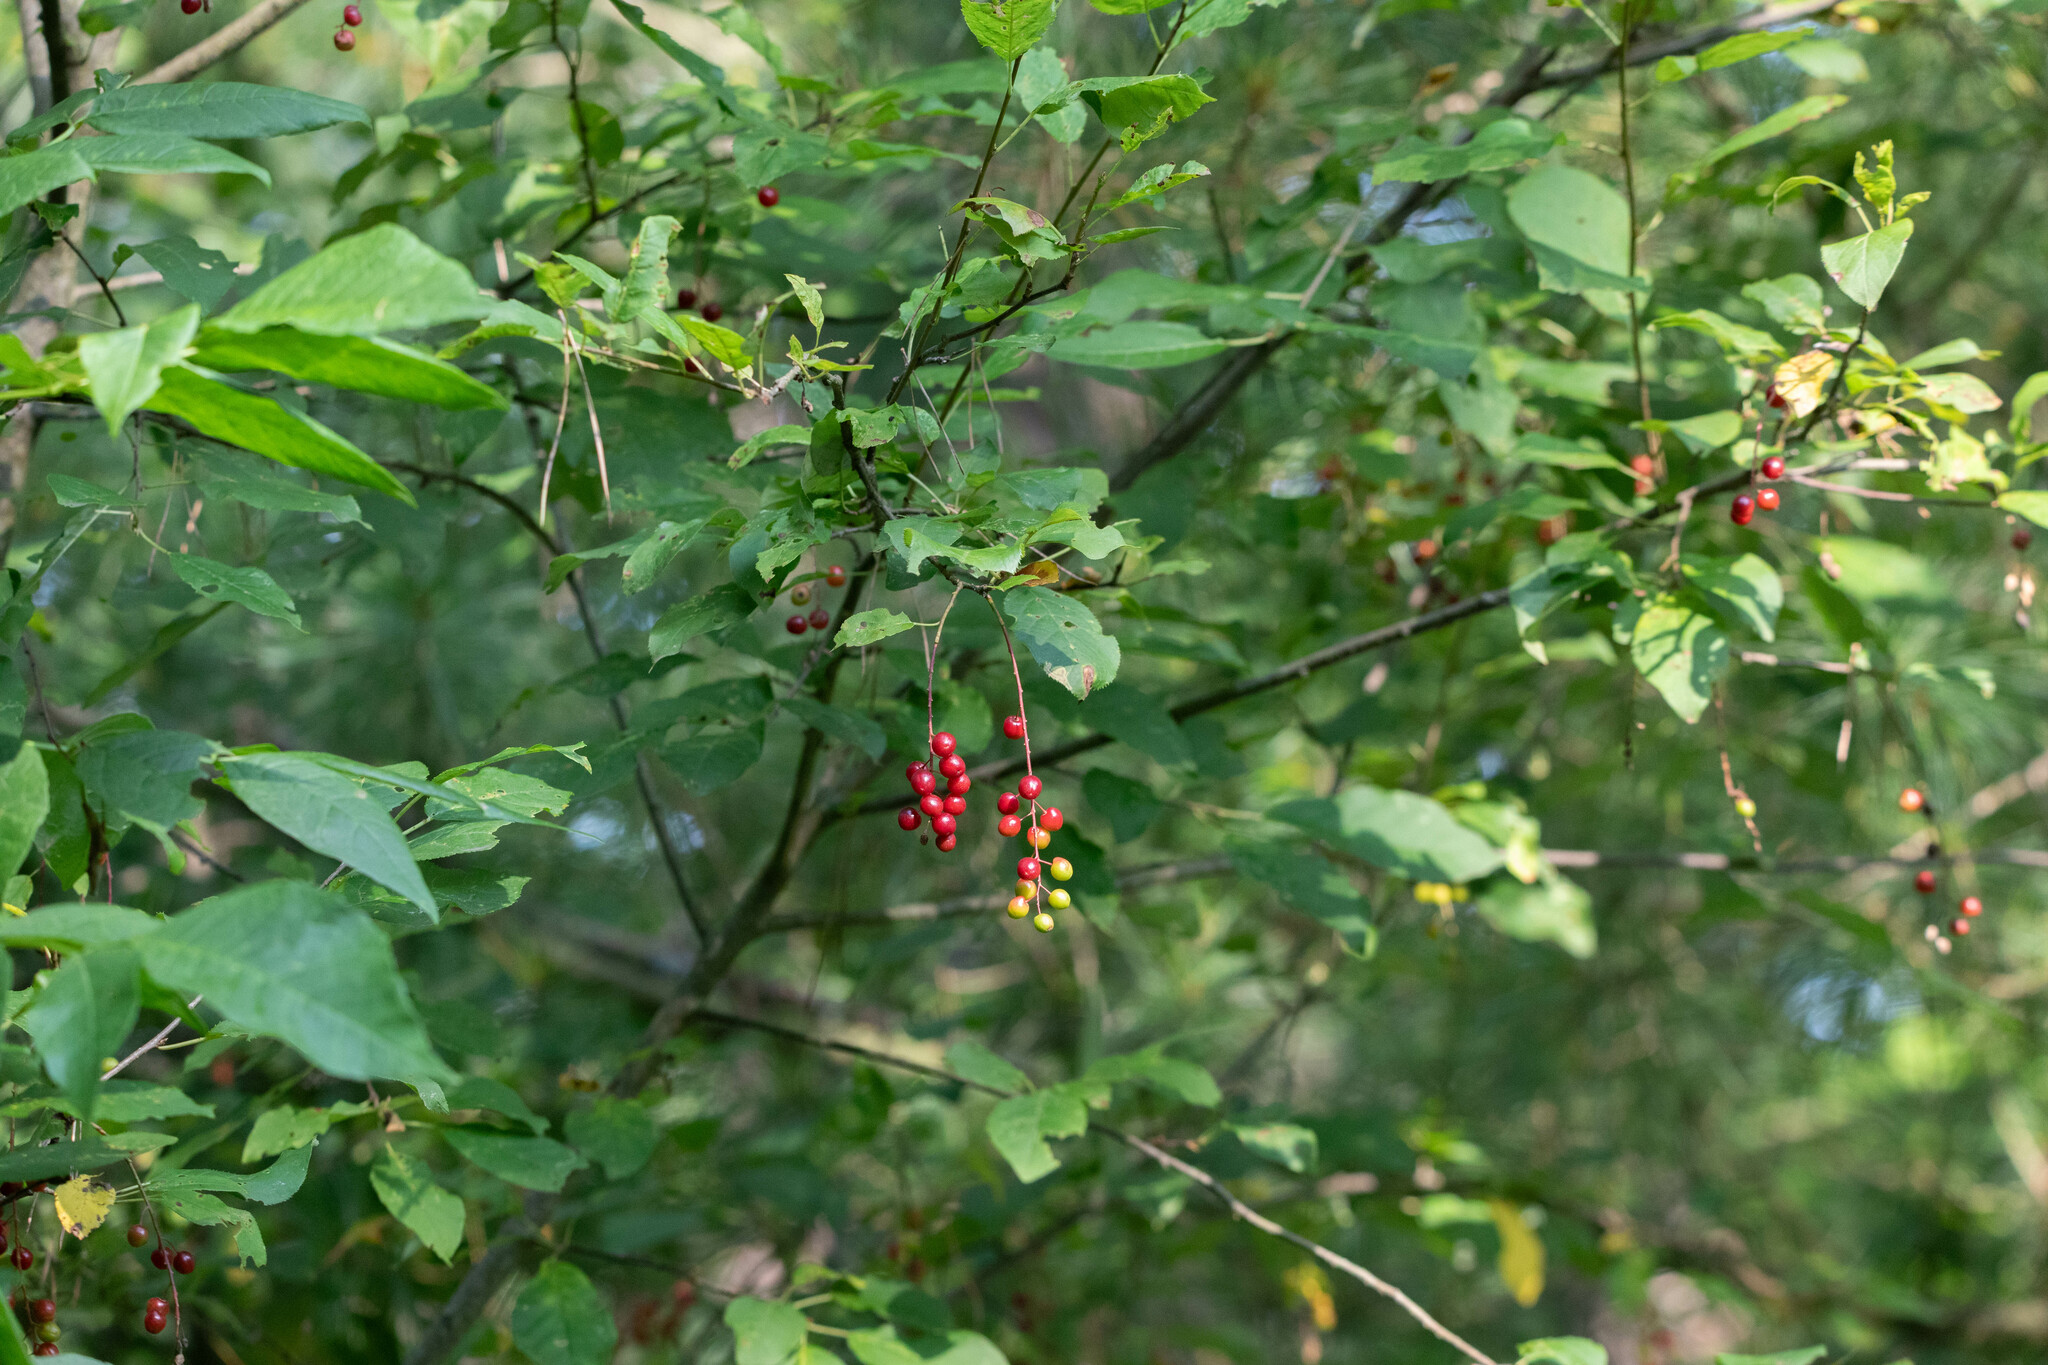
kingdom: Plantae
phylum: Tracheophyta
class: Magnoliopsida
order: Rosales
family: Rosaceae
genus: Prunus
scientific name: Prunus virginiana
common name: Chokecherry
